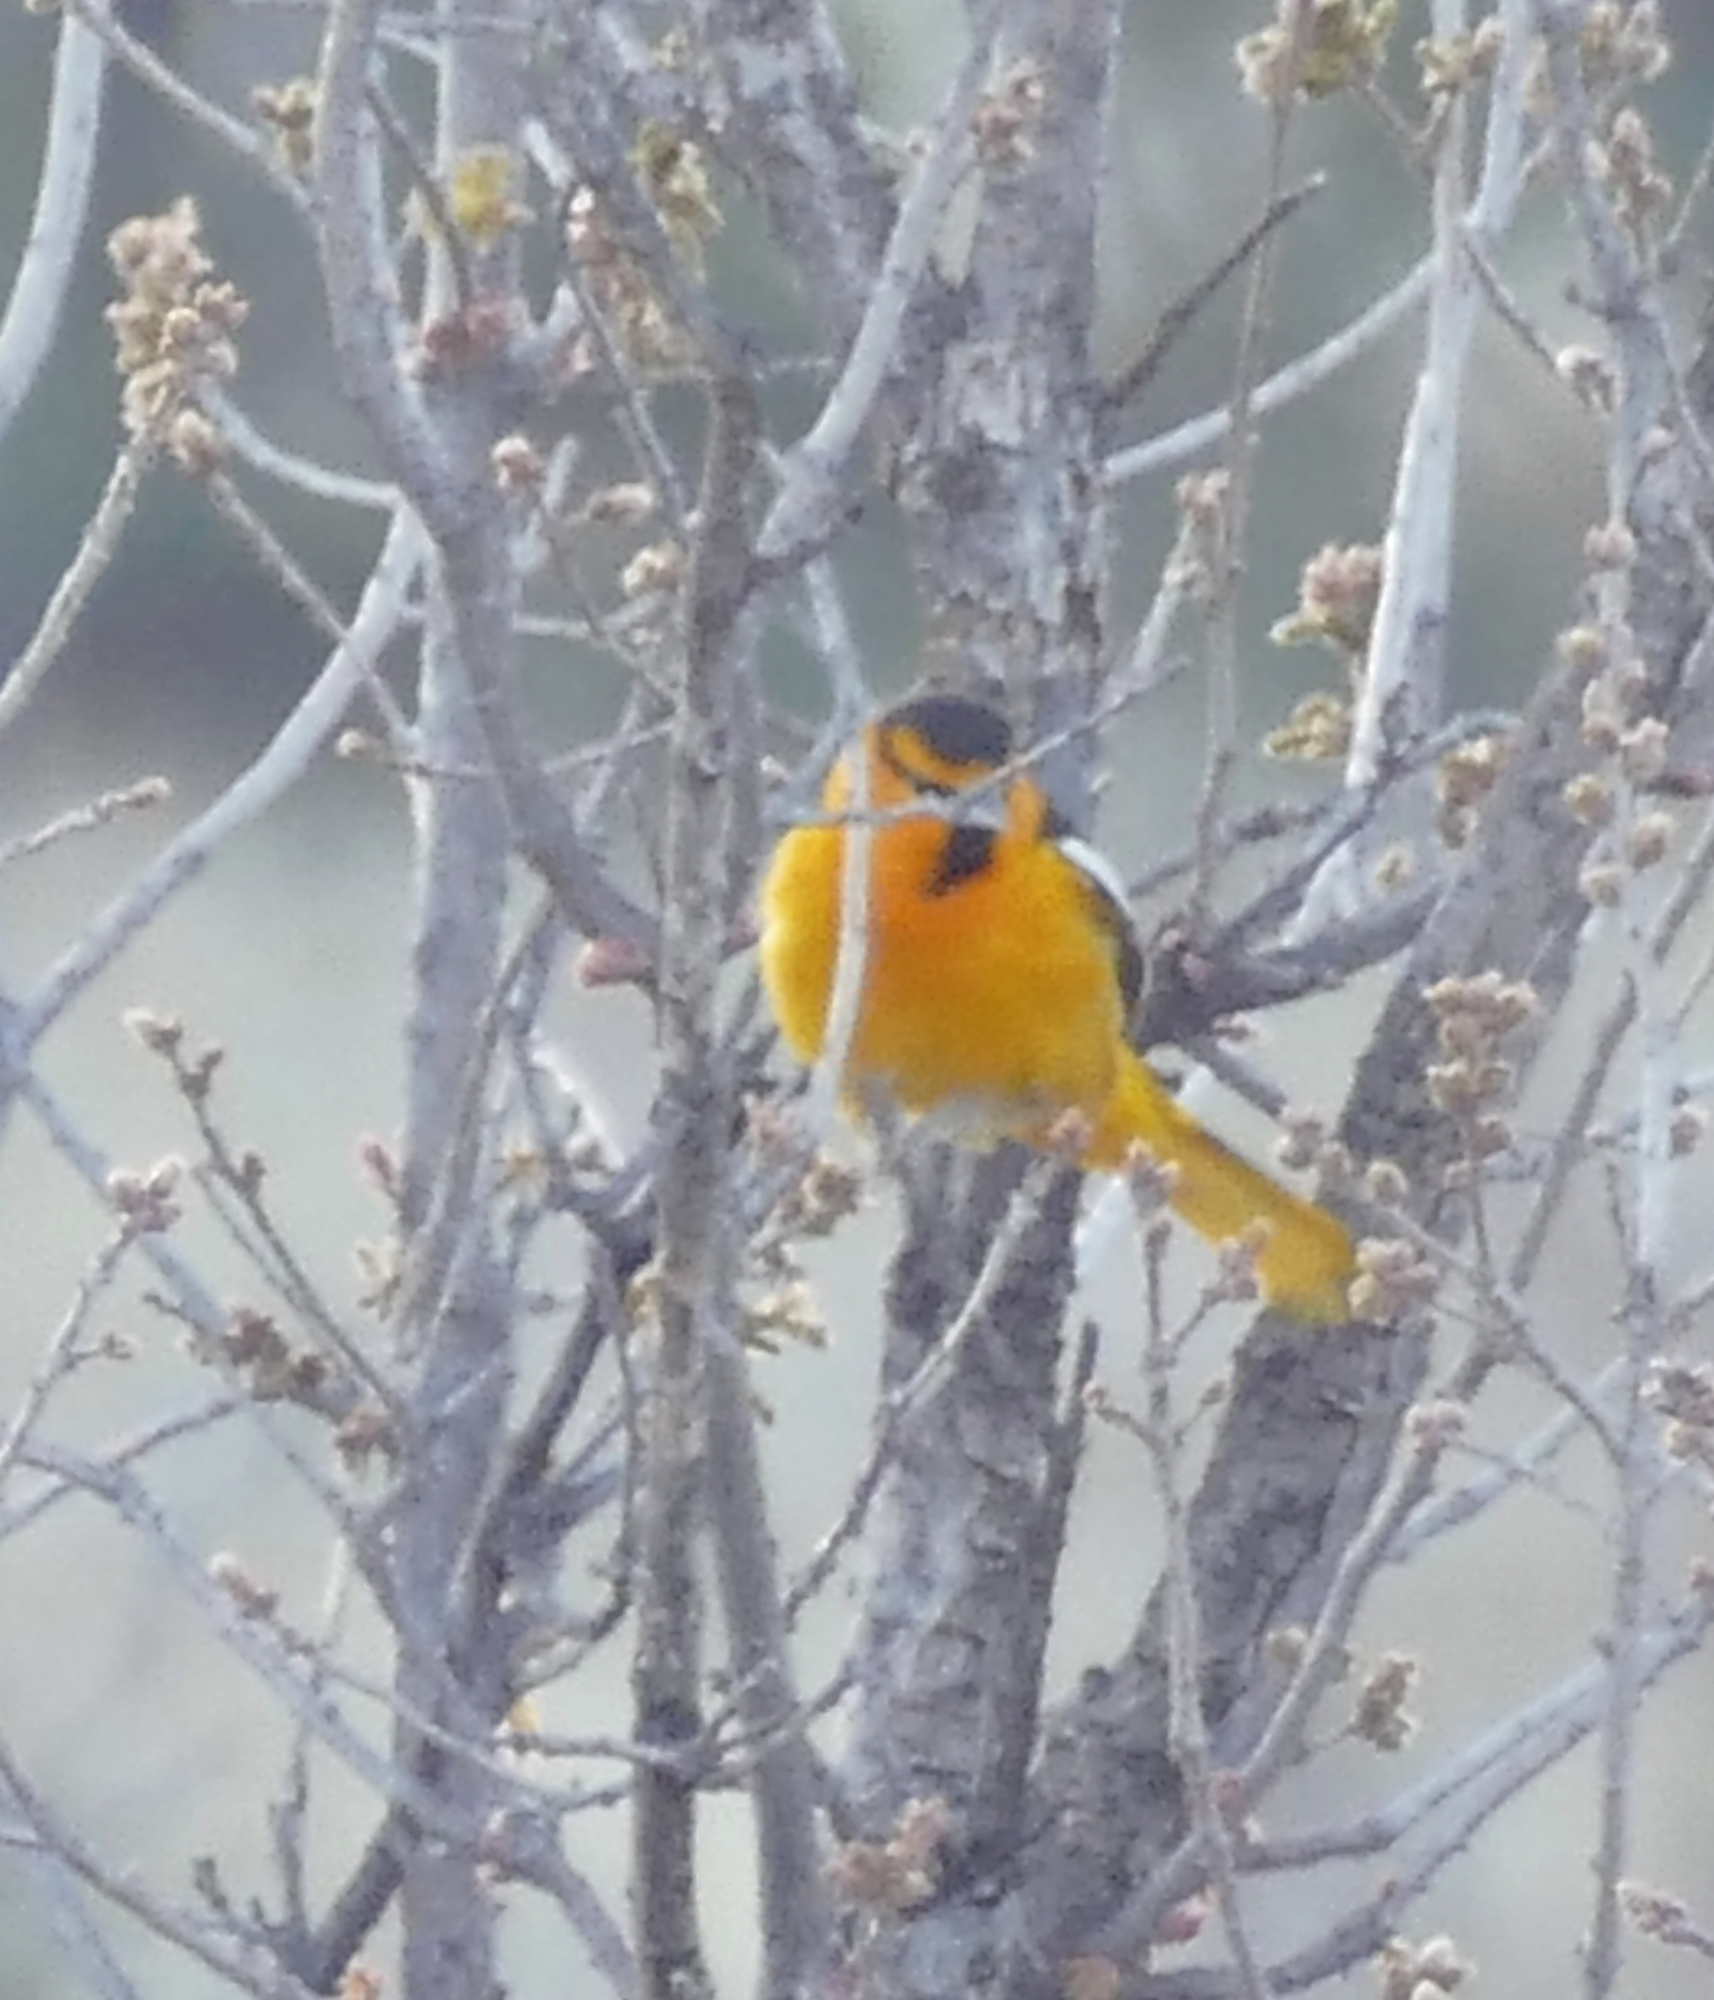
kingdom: Animalia
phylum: Chordata
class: Aves
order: Passeriformes
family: Icteridae
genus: Icterus
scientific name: Icterus bullockii
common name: Bullock's oriole
